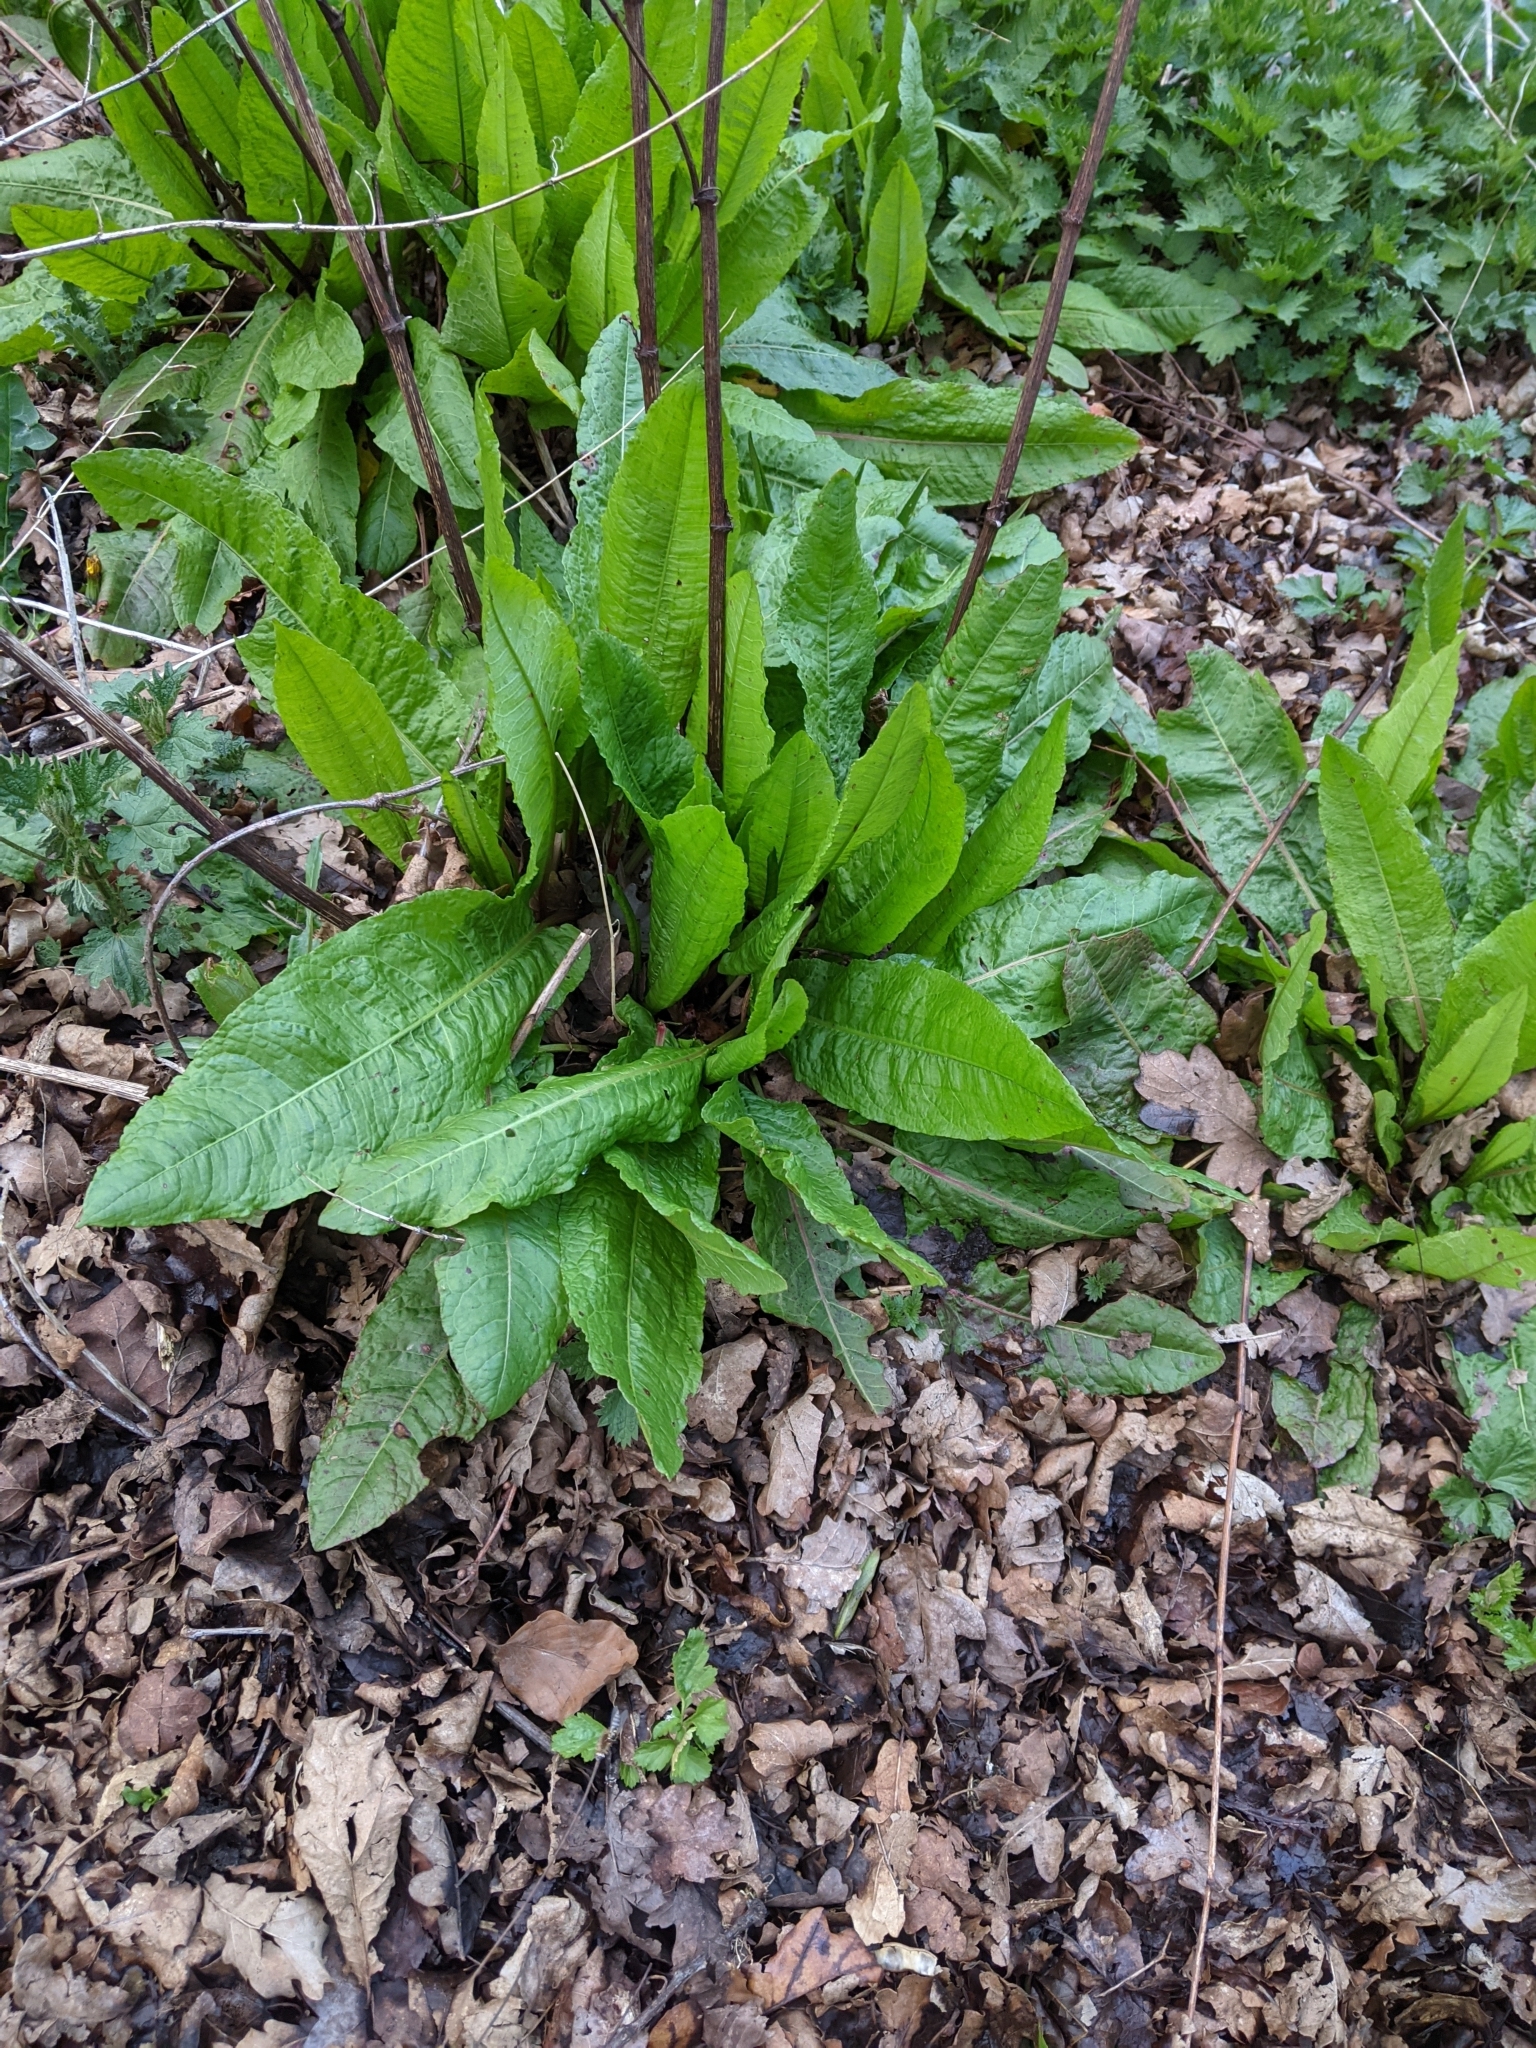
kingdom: Plantae
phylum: Tracheophyta
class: Magnoliopsida
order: Caryophyllales
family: Polygonaceae
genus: Rumex
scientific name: Rumex sanguineus
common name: Wood dock
